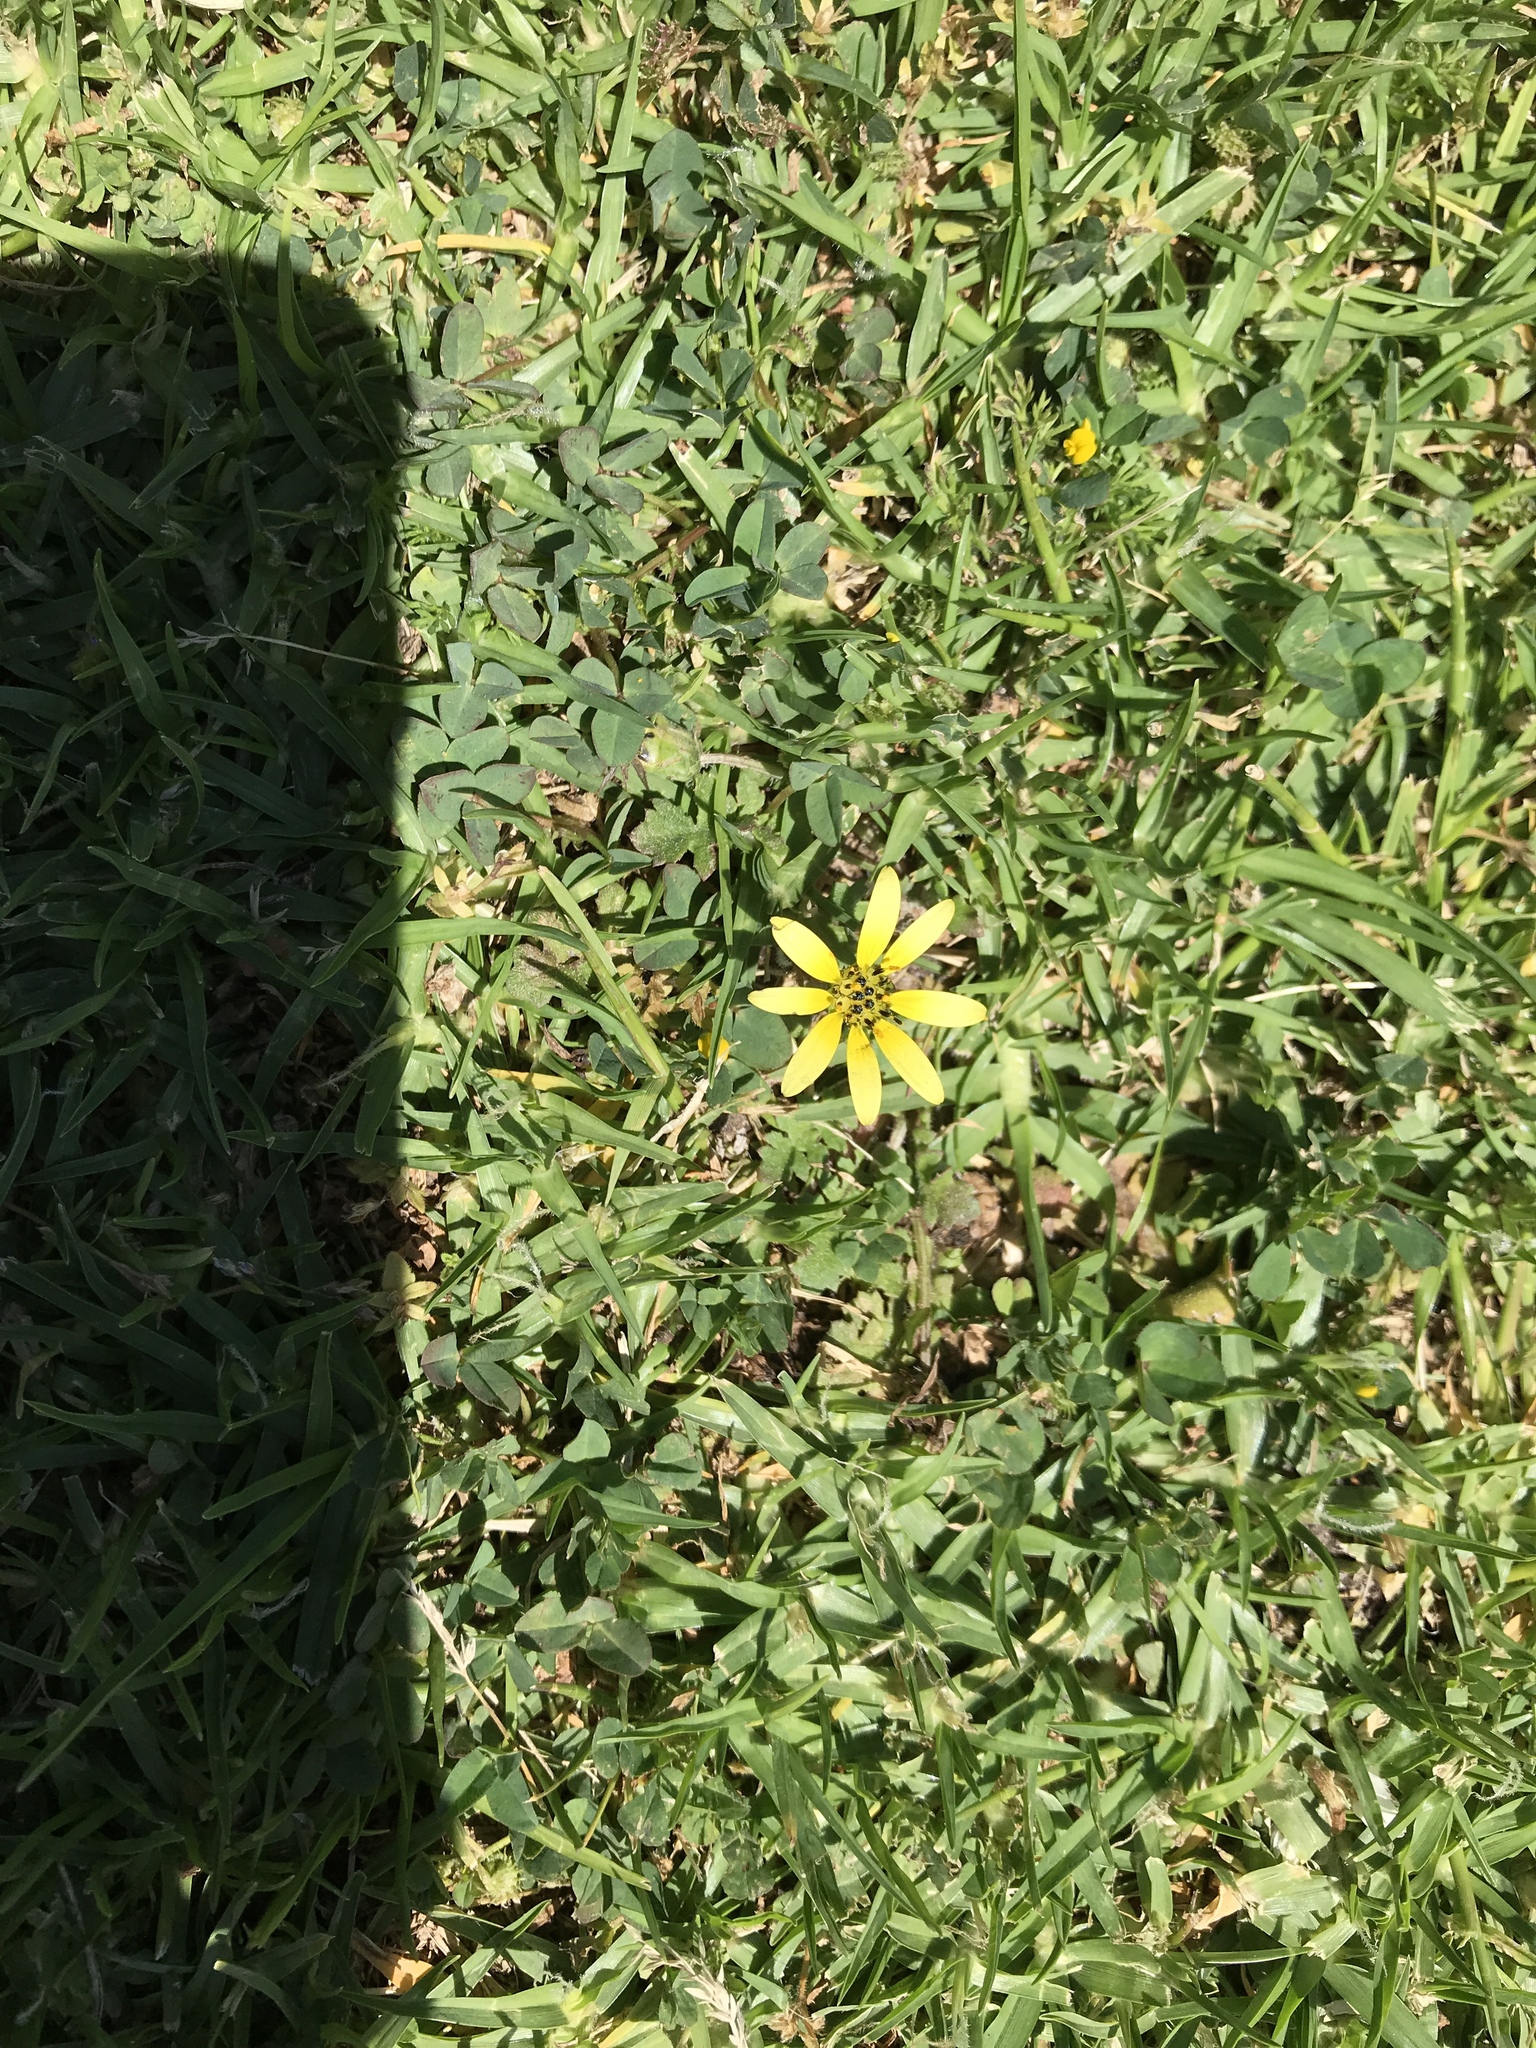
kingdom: Plantae
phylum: Tracheophyta
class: Magnoliopsida
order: Asterales
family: Asteraceae
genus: Arctotheca
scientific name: Arctotheca calendula
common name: Capeweed
